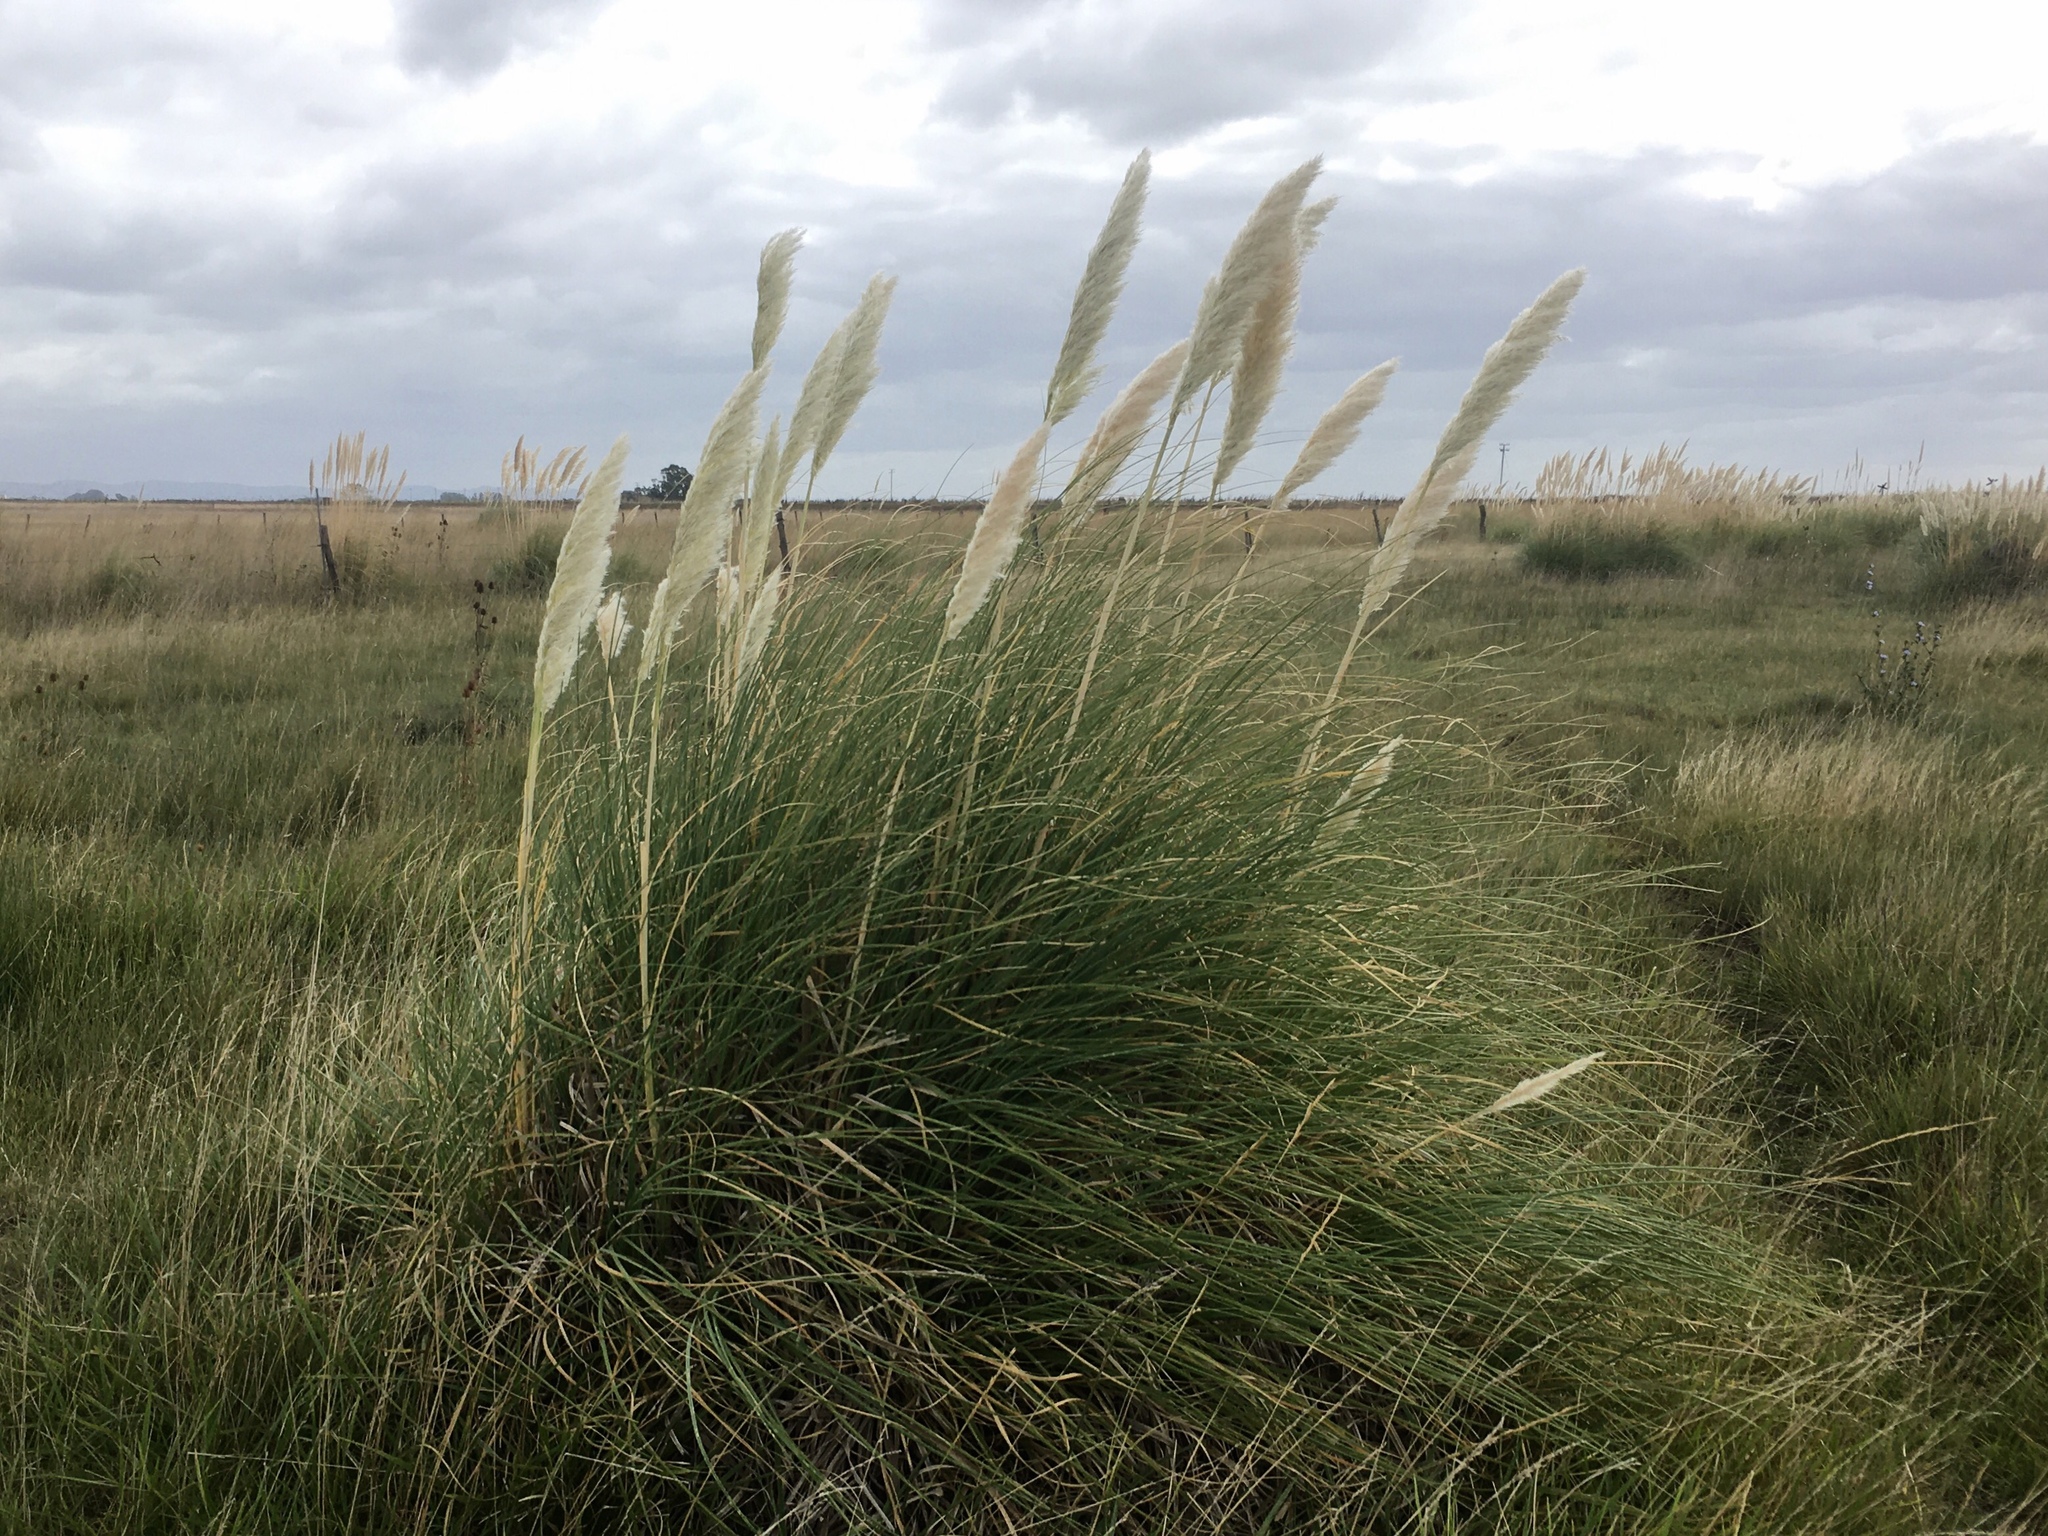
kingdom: Plantae
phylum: Tracheophyta
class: Liliopsida
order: Poales
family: Poaceae
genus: Cortaderia
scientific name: Cortaderia selloana
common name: Uruguayan pampas grass
